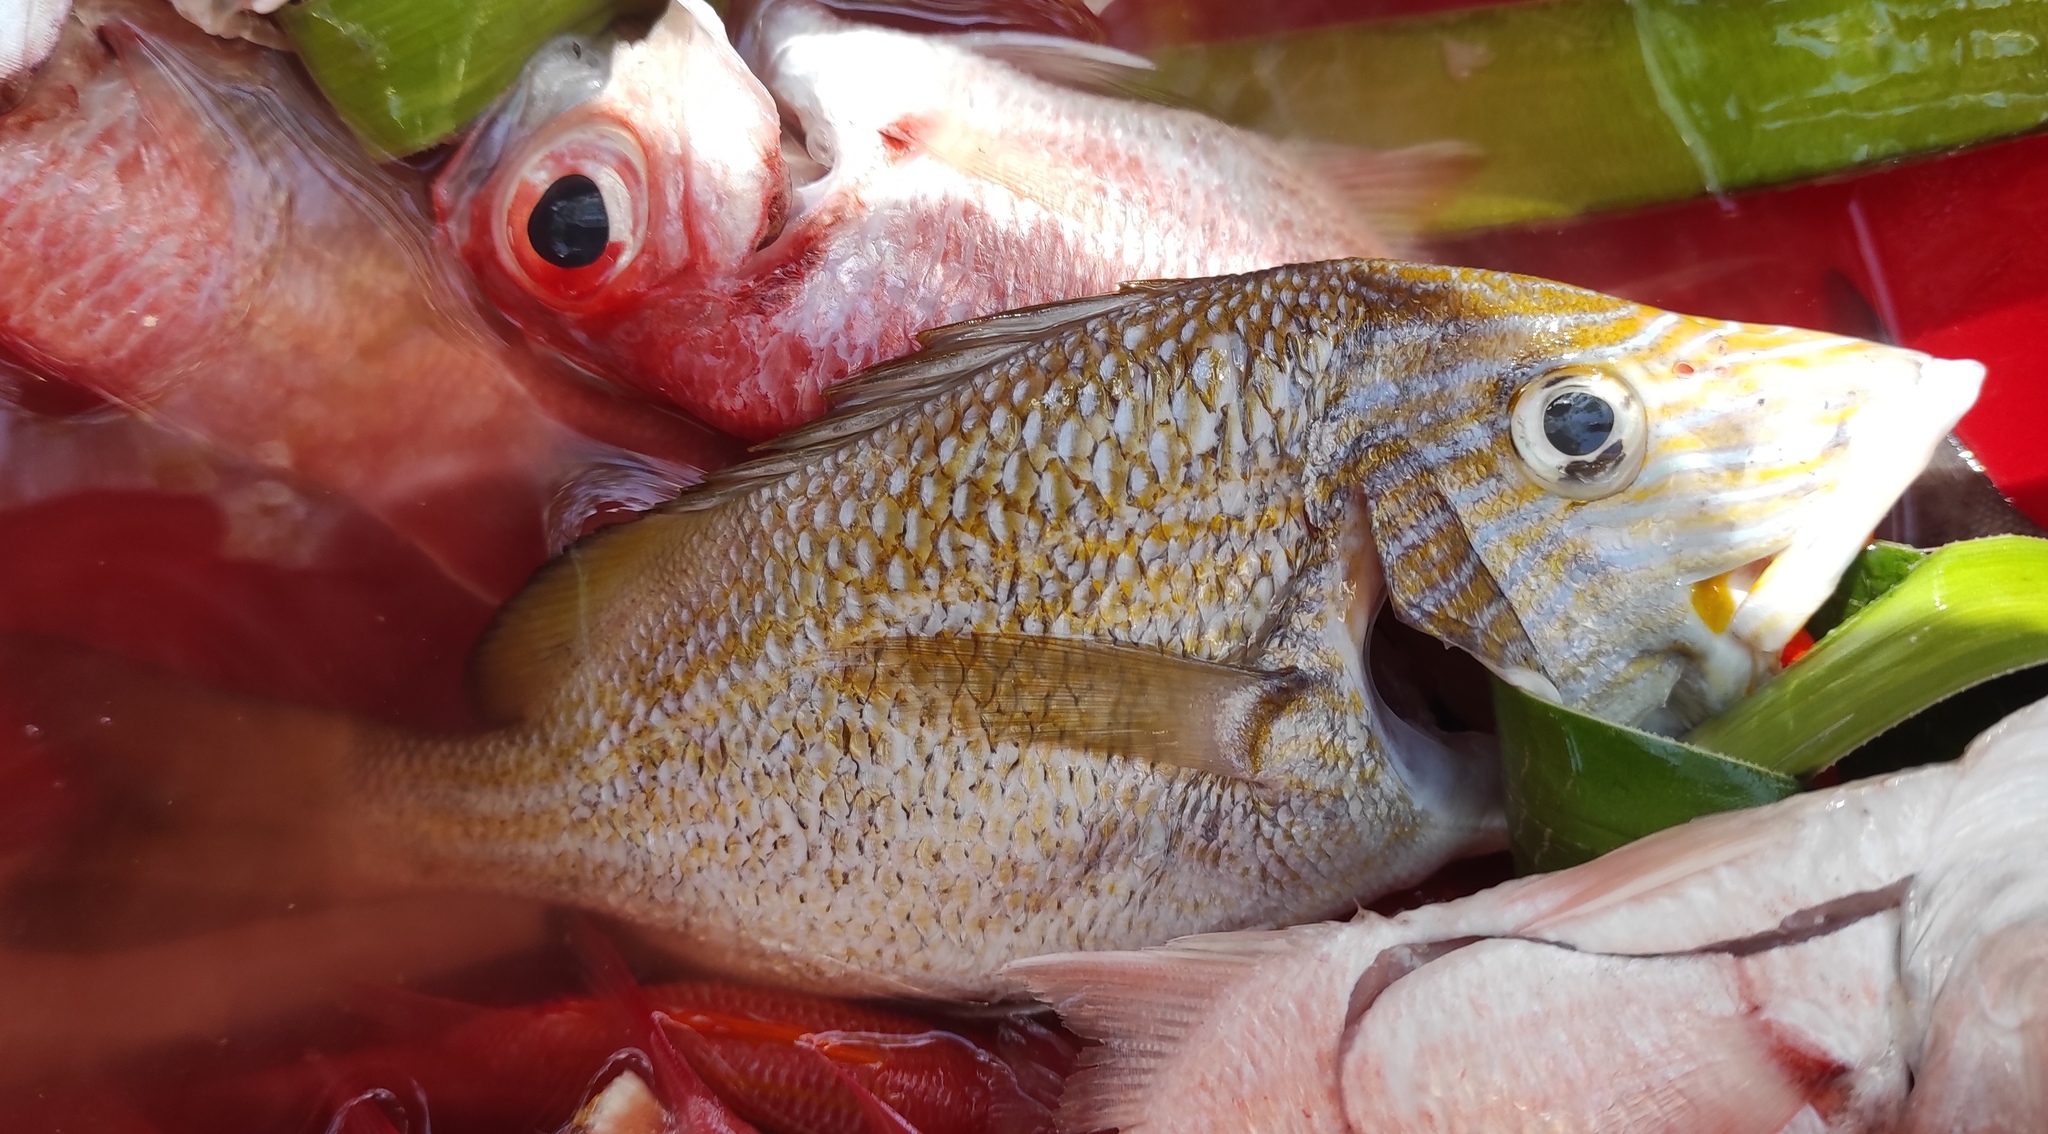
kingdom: Animalia
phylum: Chordata
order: Perciformes
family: Haemulidae
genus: Haemulon
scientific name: Haemulon plumierii
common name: White grunt
